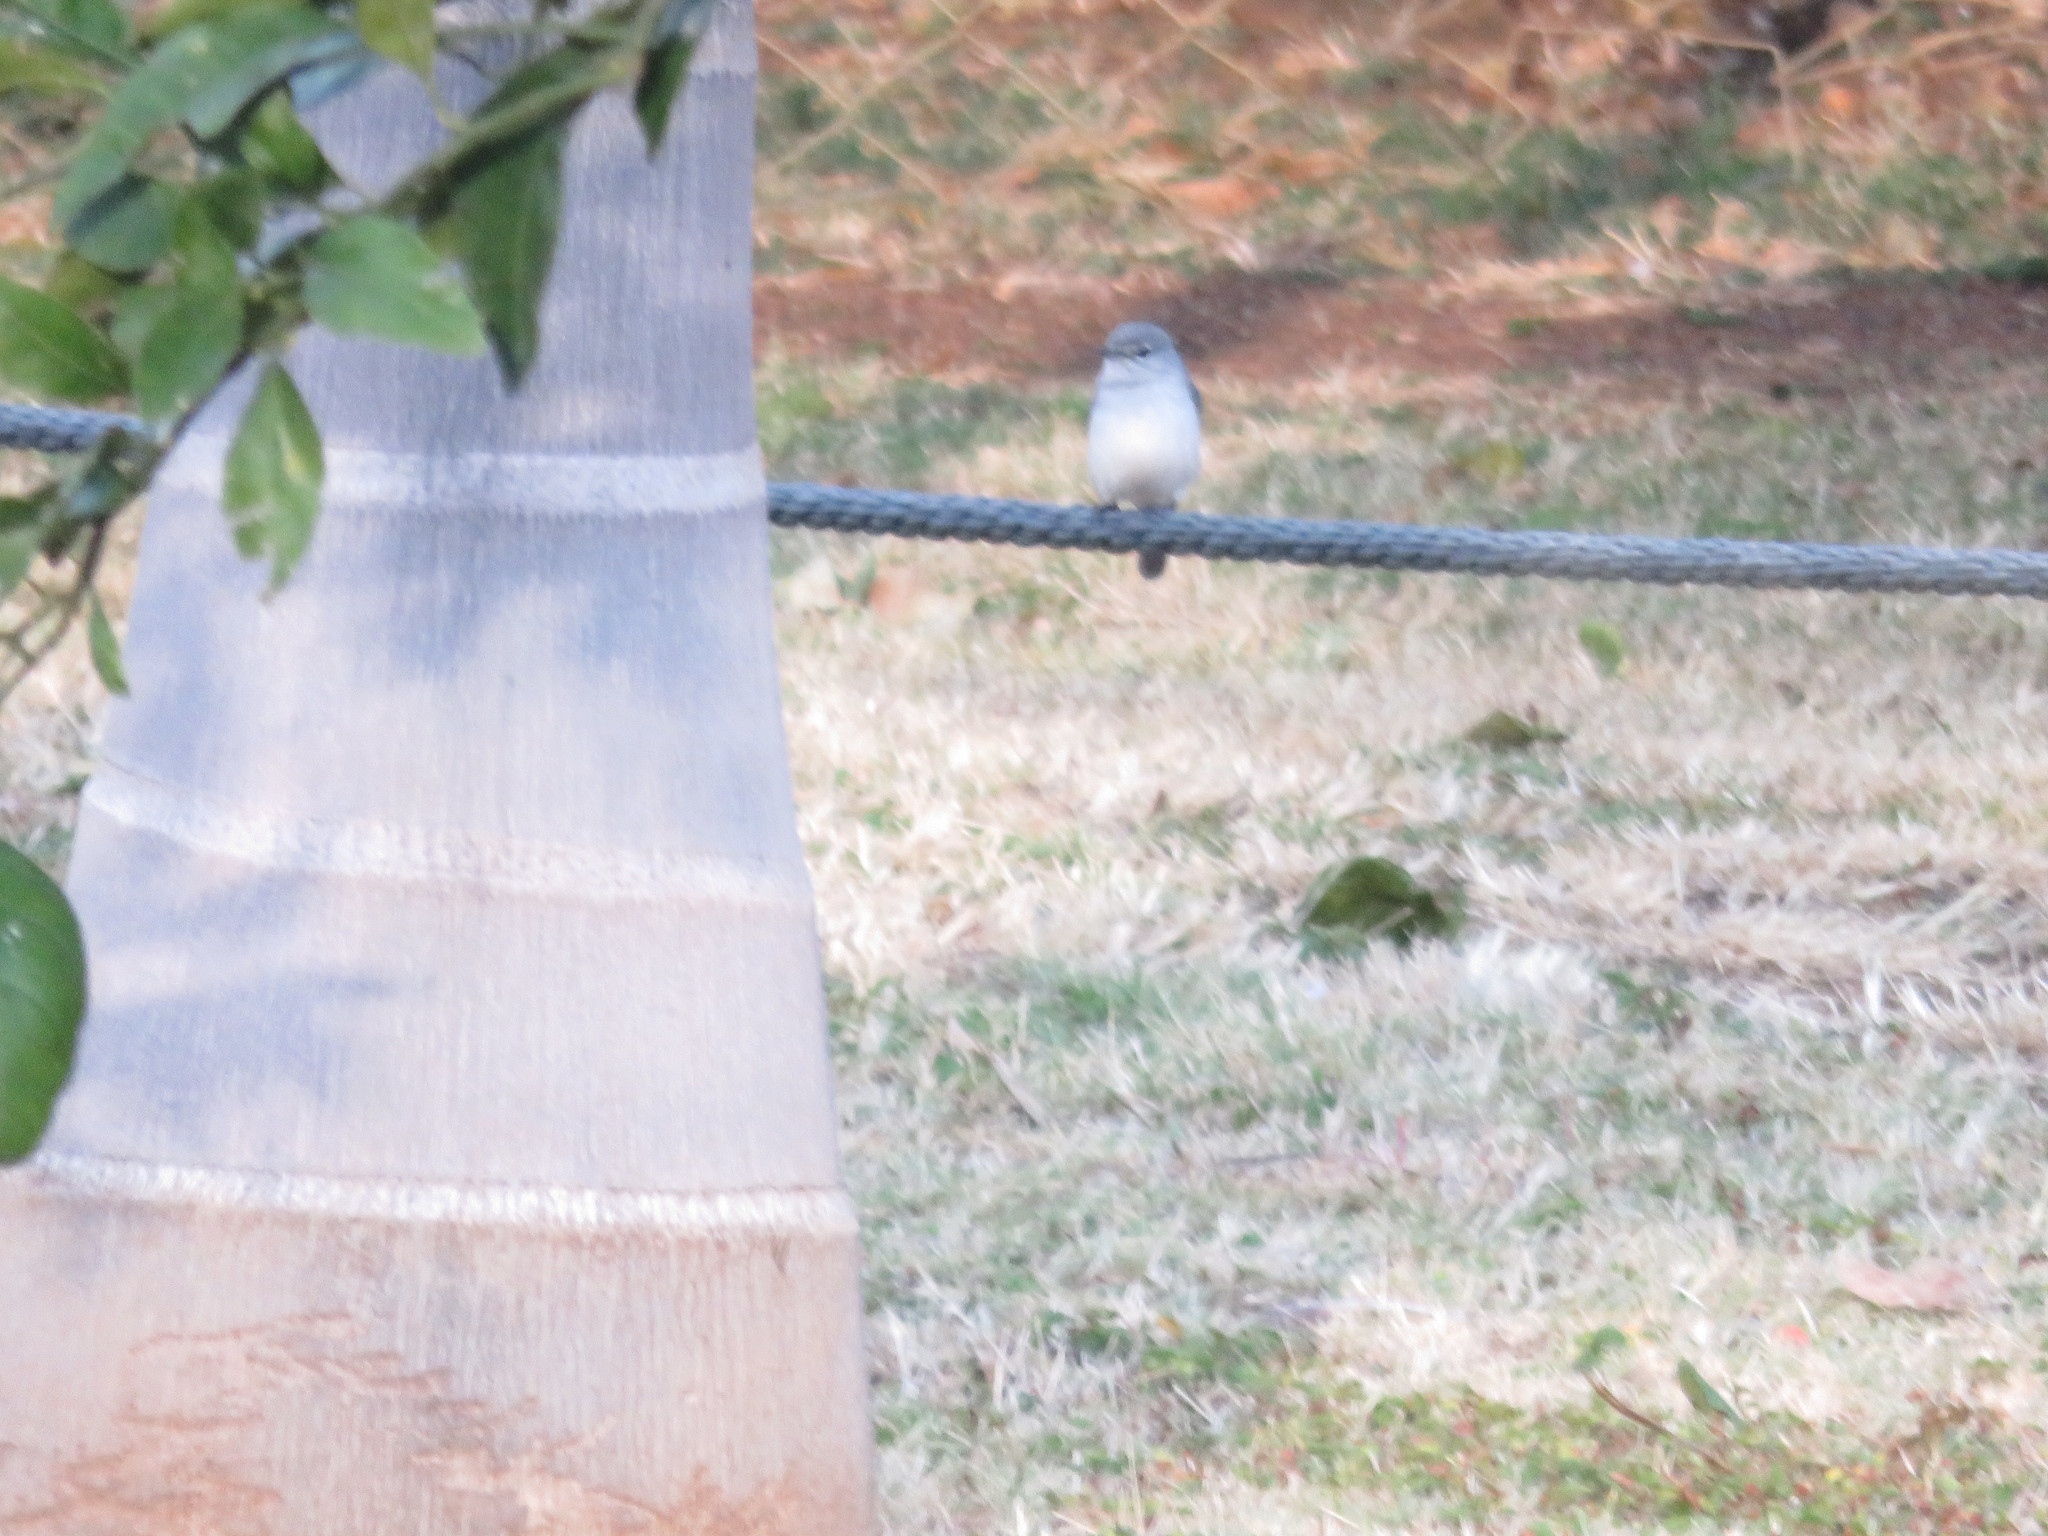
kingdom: Animalia
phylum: Chordata
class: Aves
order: Passeriformes
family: Muscicapidae
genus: Muscicapa
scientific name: Muscicapa caerulescens
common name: Ashy flycatcher
